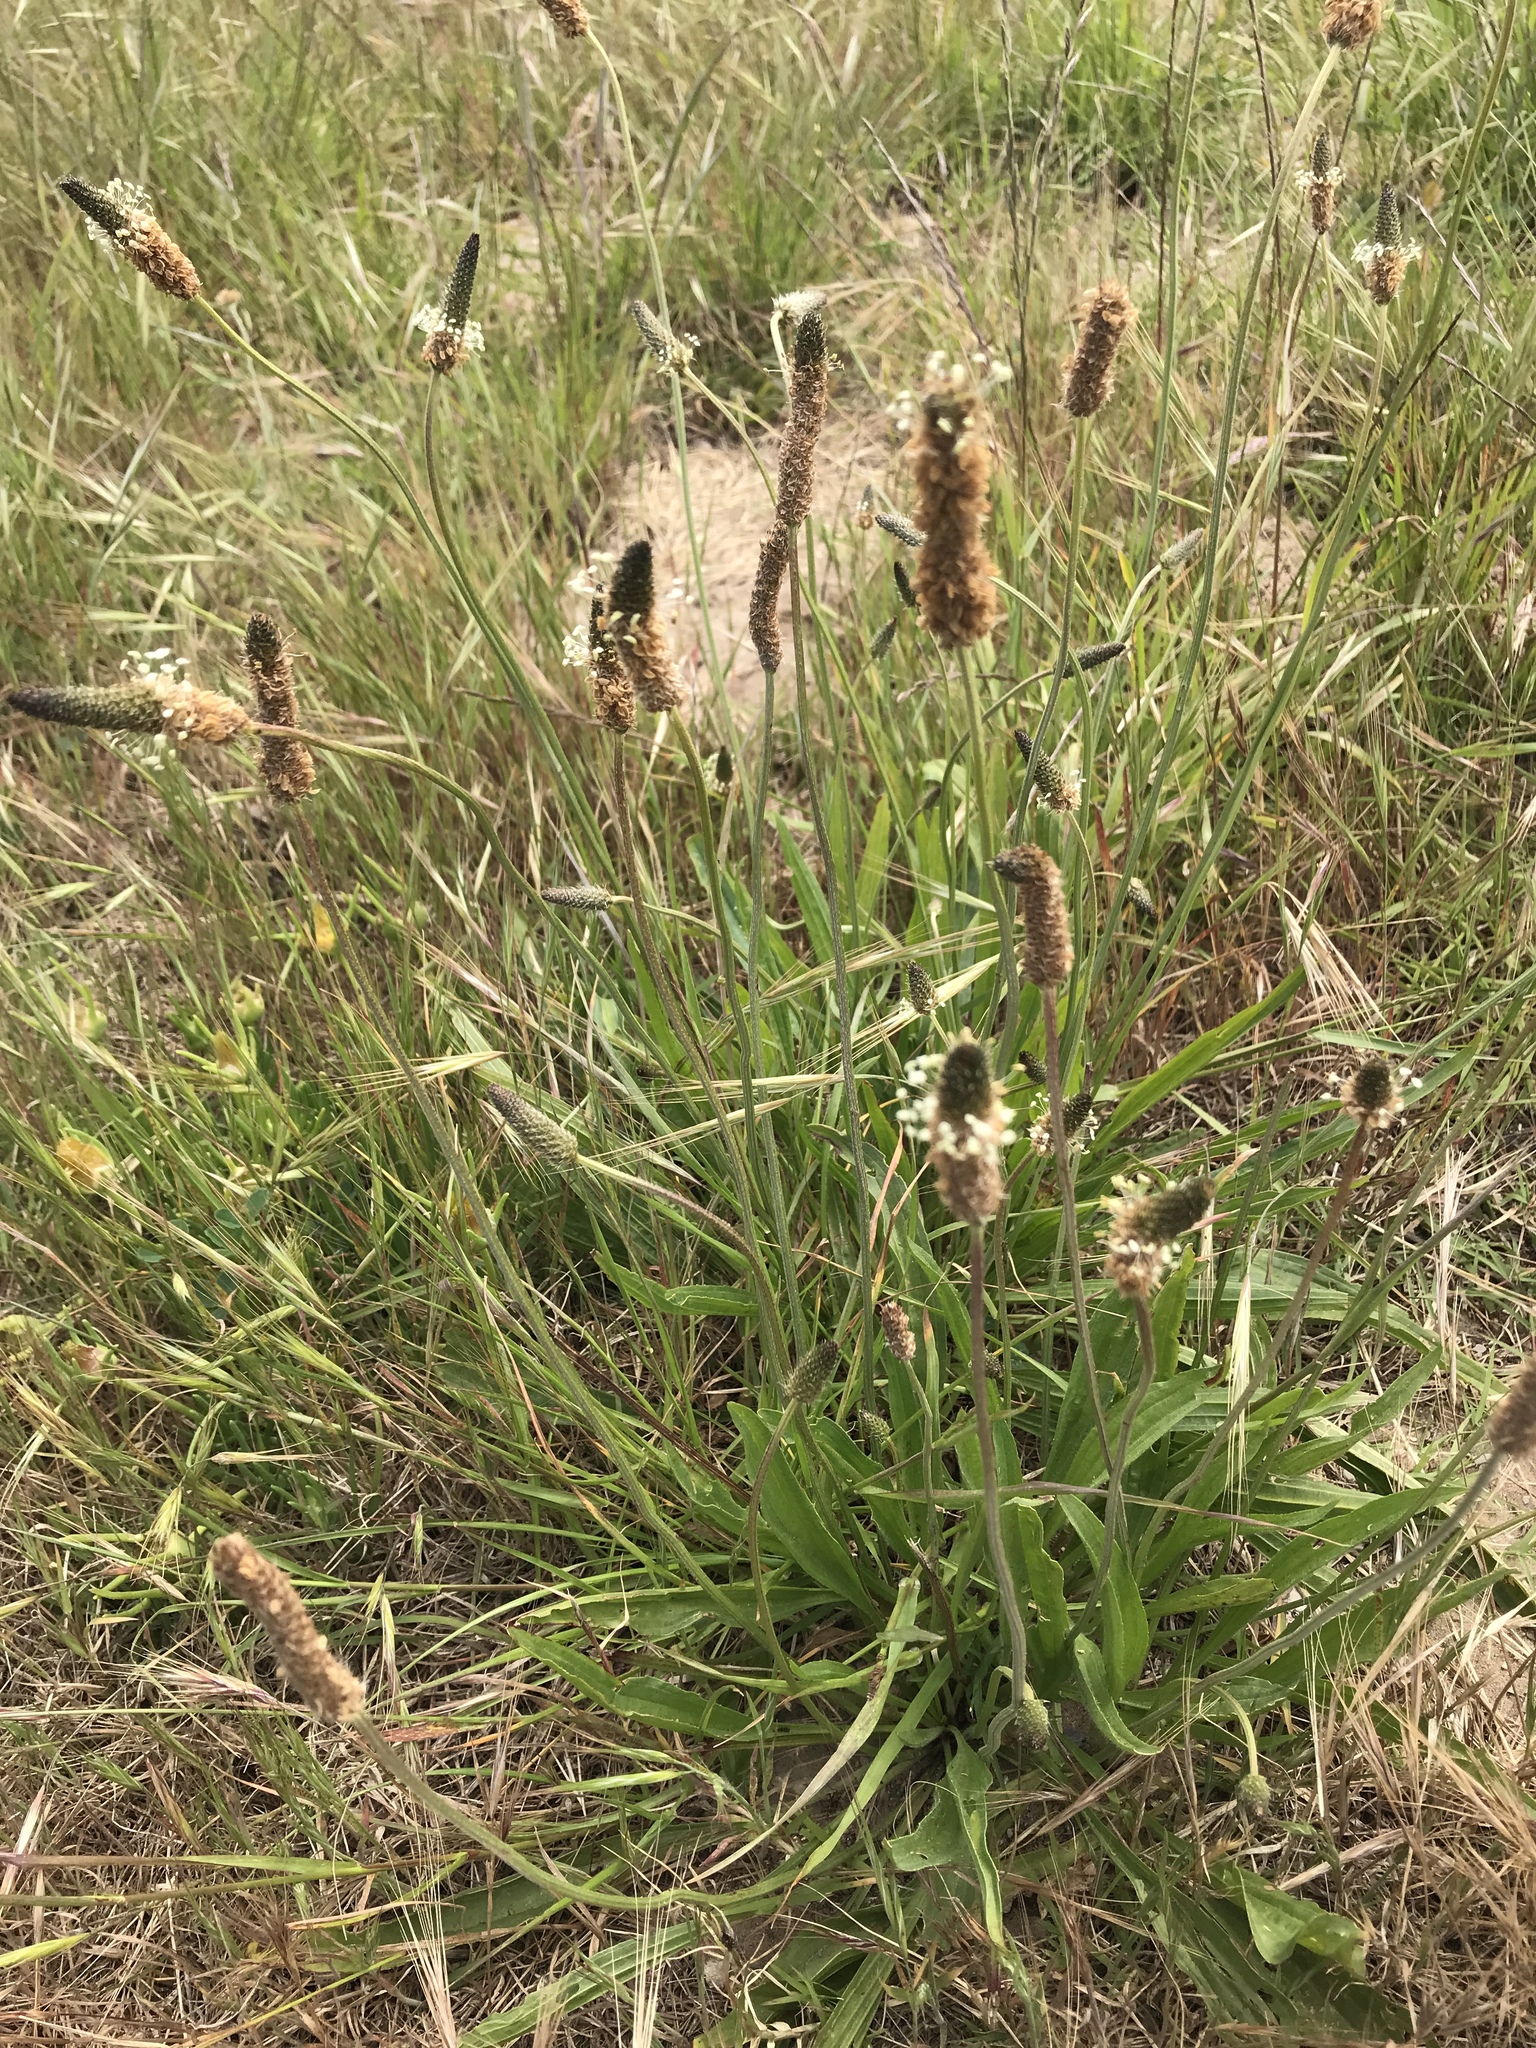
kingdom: Plantae
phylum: Tracheophyta
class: Magnoliopsida
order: Lamiales
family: Plantaginaceae
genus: Plantago
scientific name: Plantago lanceolata
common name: Ribwort plantain
